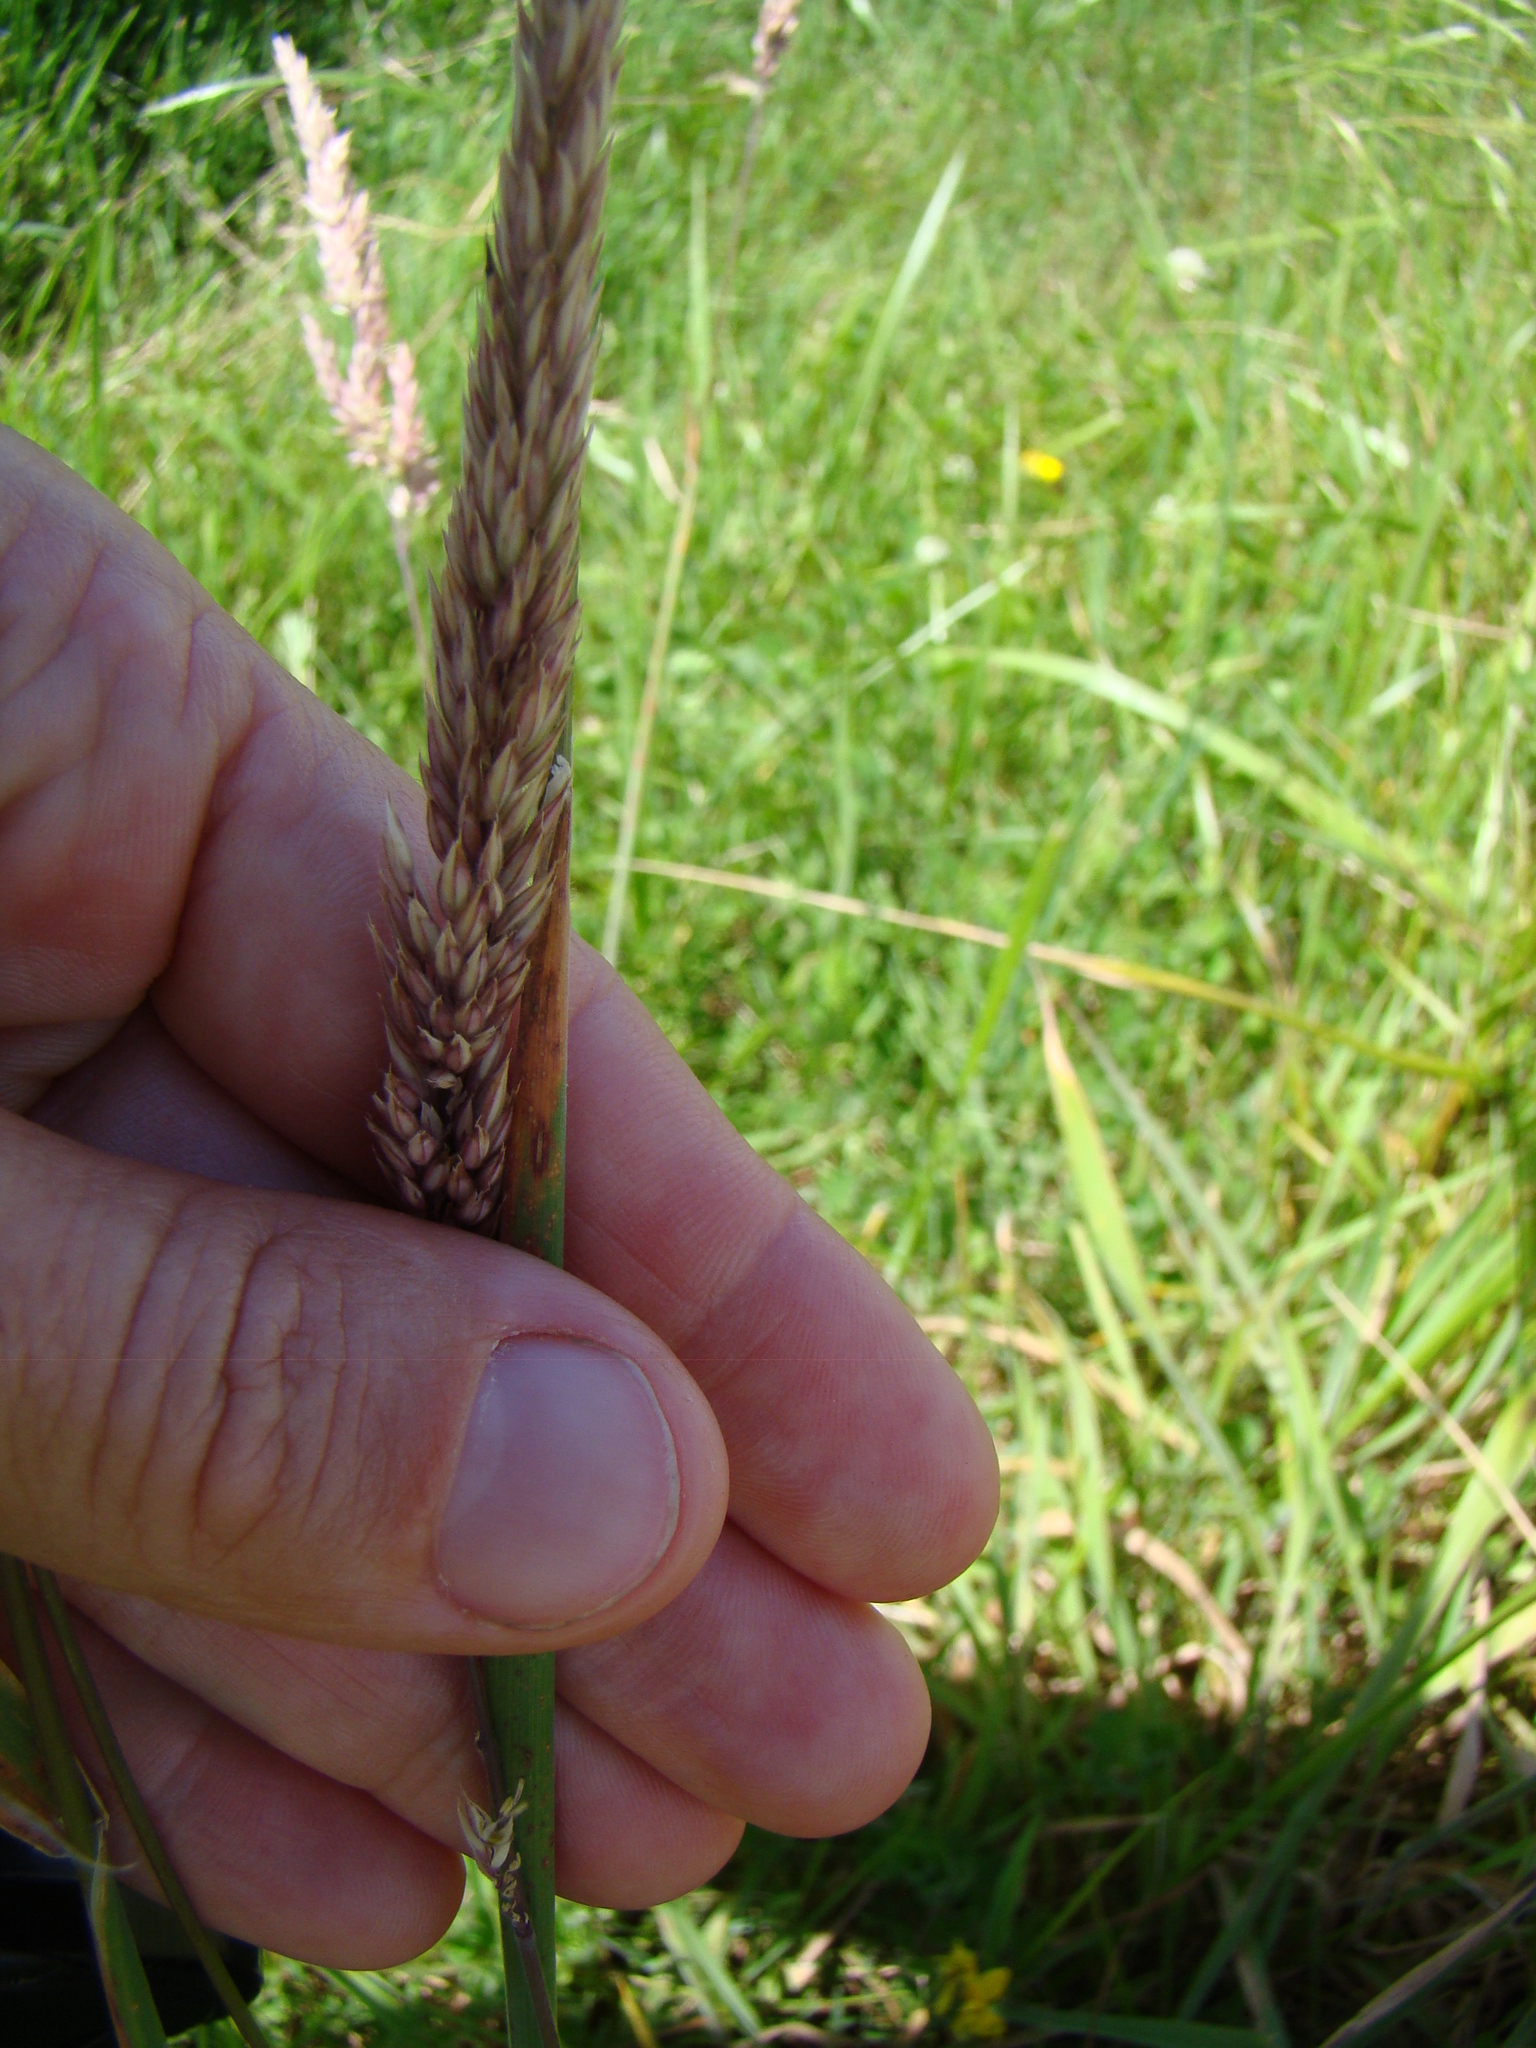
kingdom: Plantae
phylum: Tracheophyta
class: Liliopsida
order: Poales
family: Poaceae
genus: Holcus
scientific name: Holcus lanatus
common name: Yorkshire-fog
